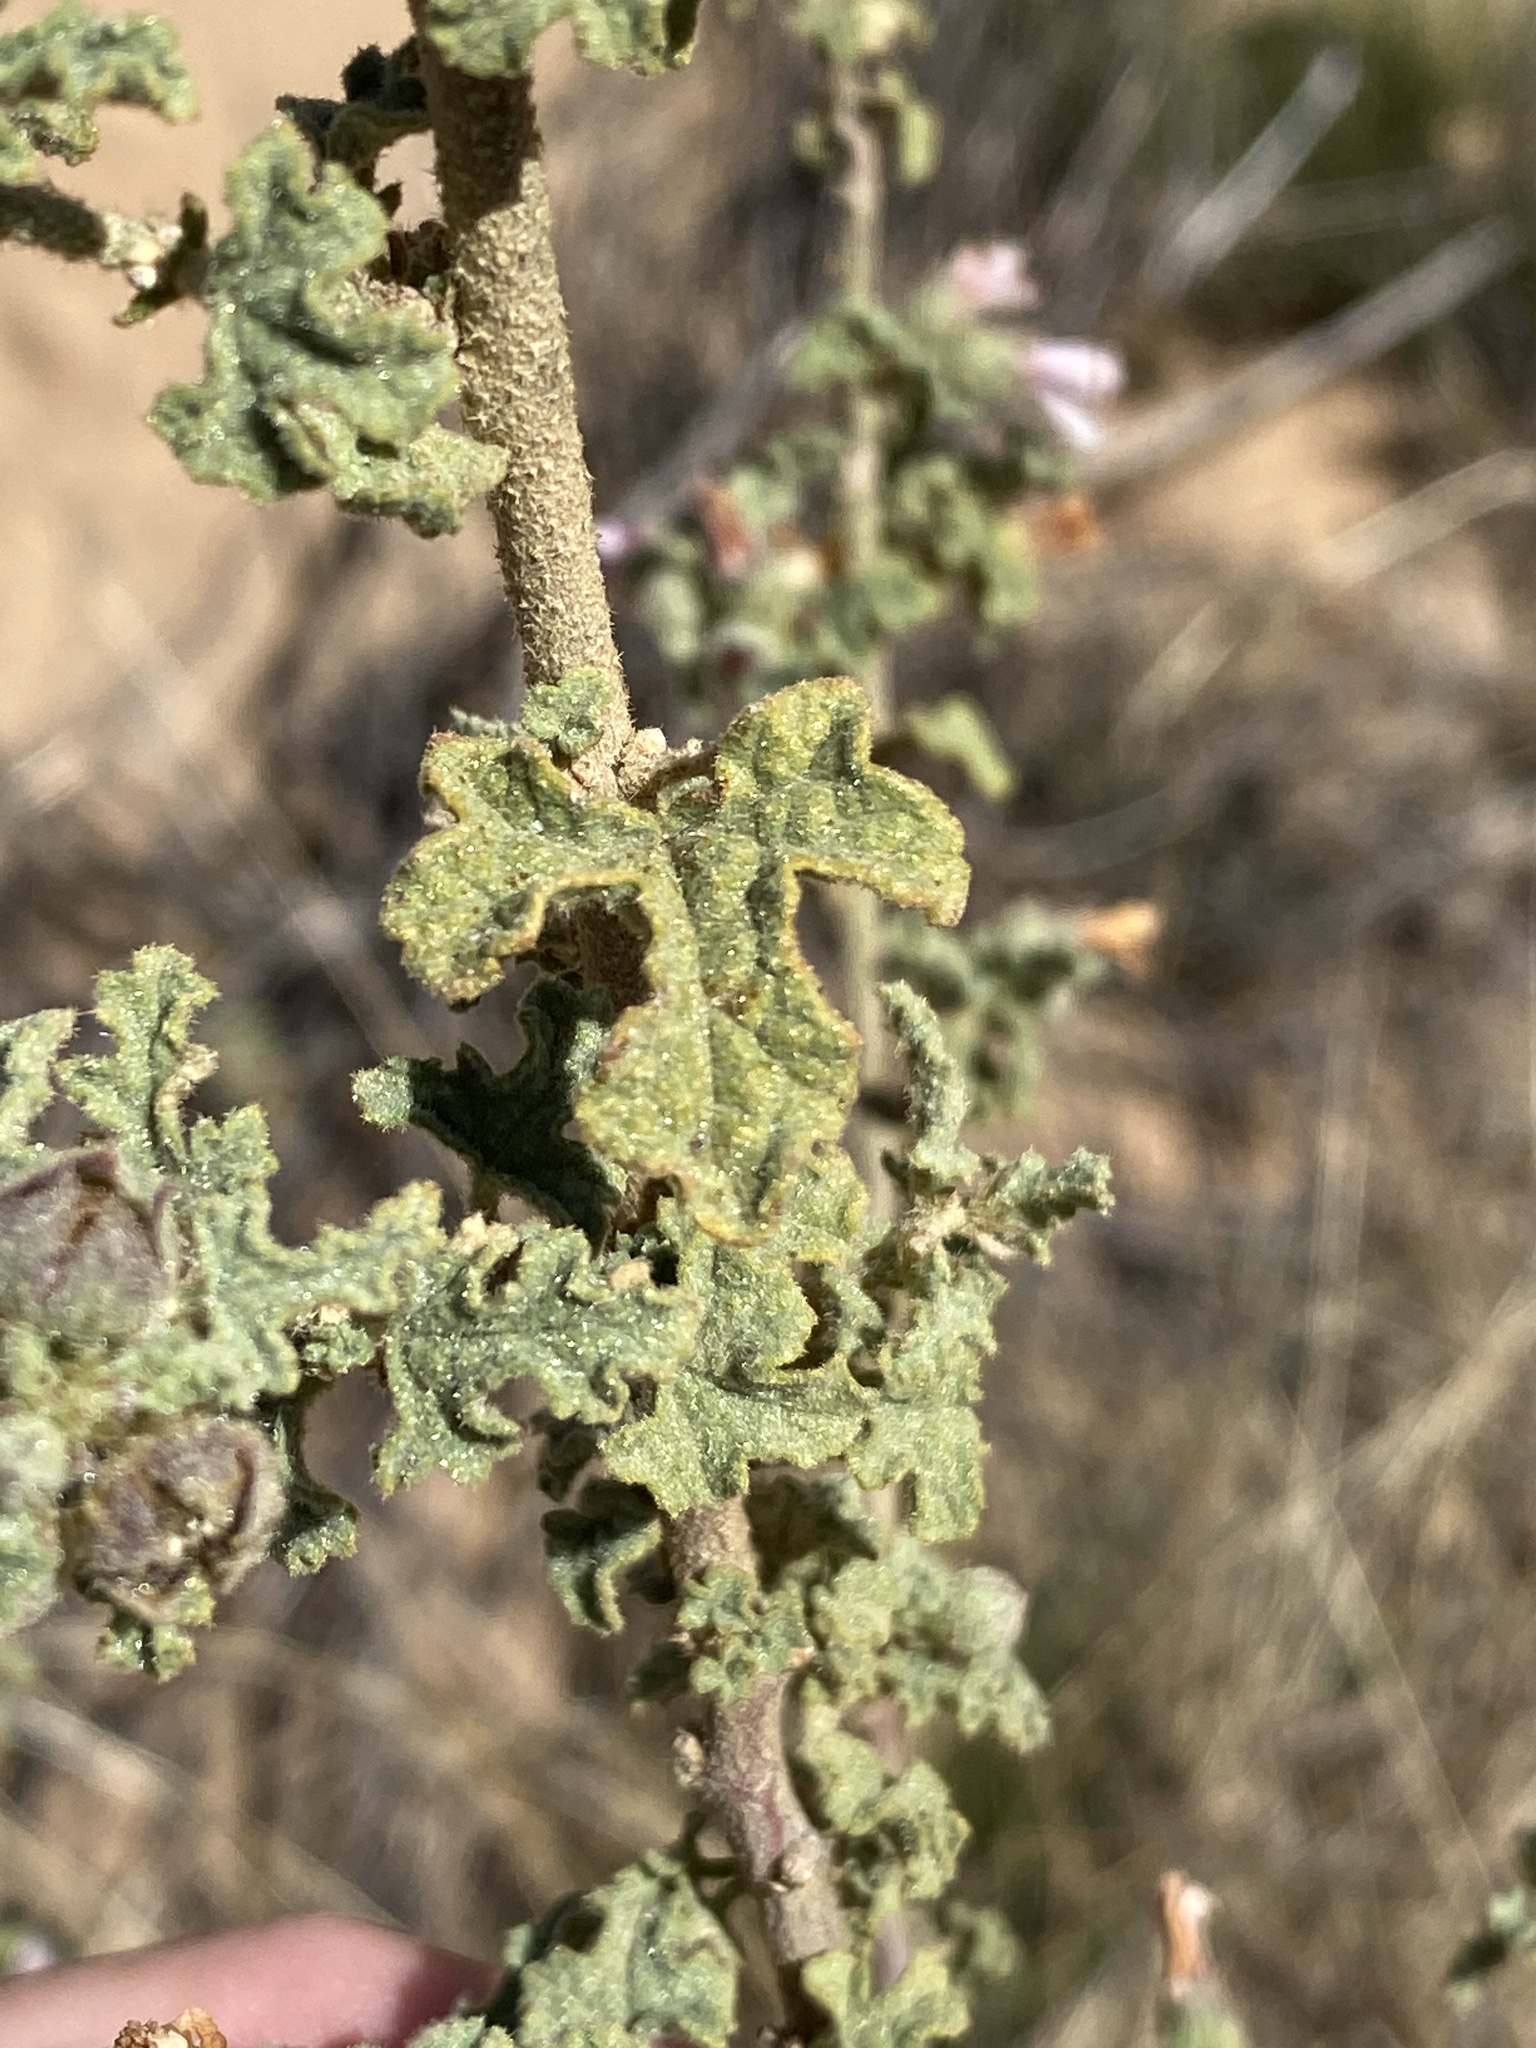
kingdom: Plantae
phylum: Tracheophyta
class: Magnoliopsida
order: Malvales
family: Malvaceae
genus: Anisodontea
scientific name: Anisodontea triloba
